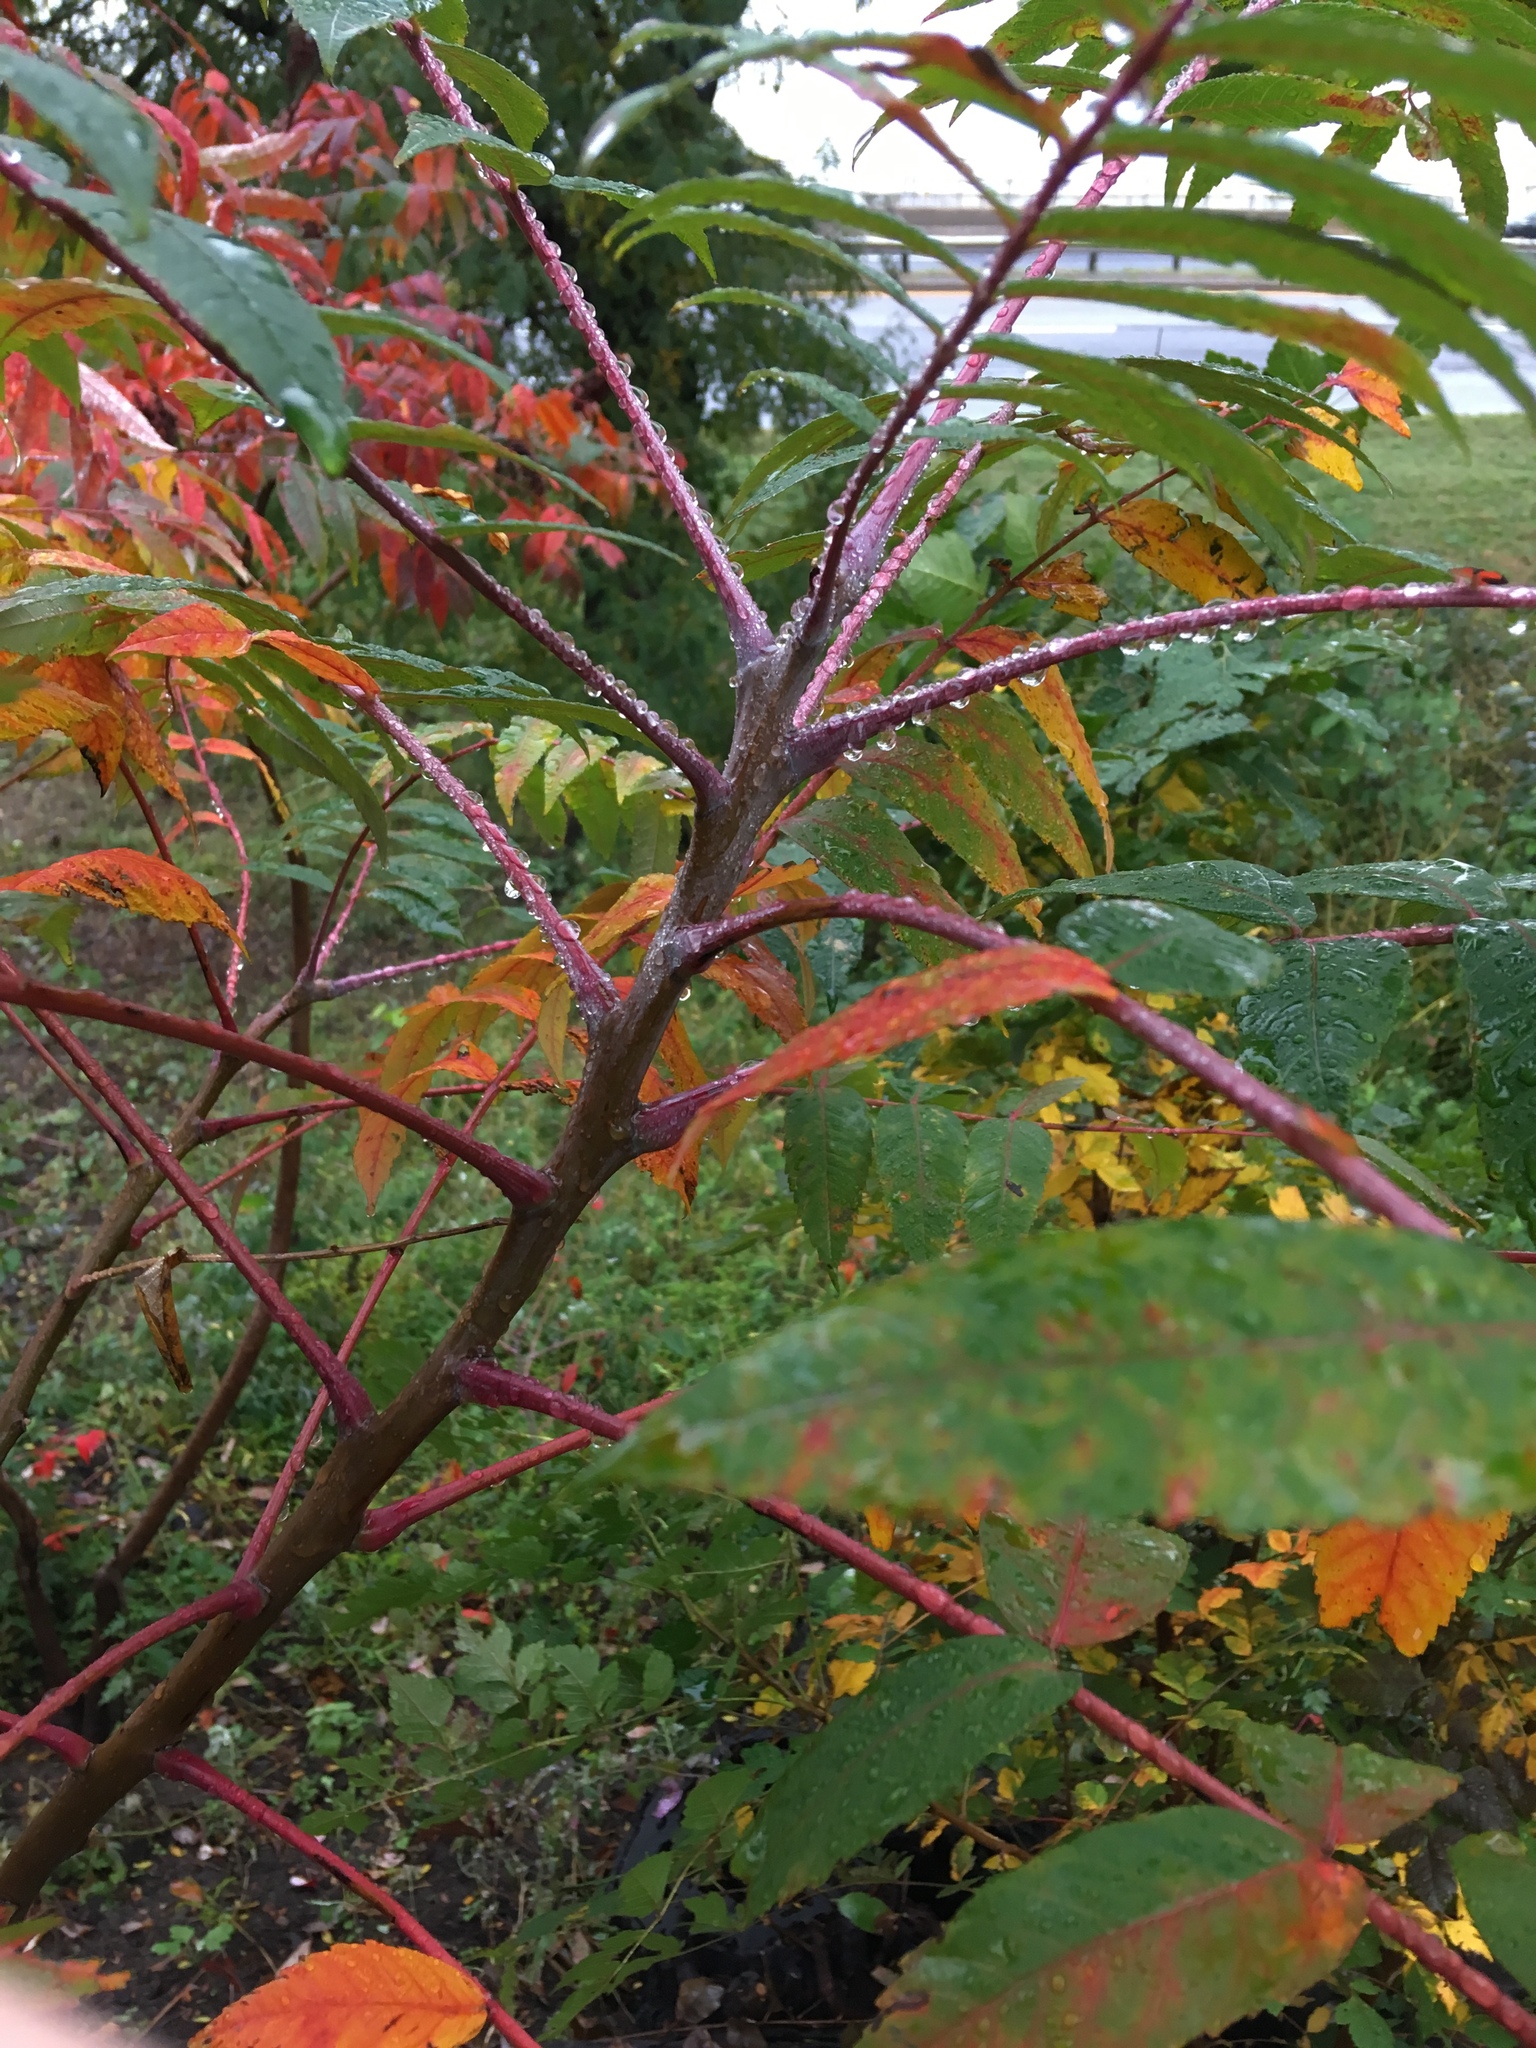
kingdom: Plantae
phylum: Tracheophyta
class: Magnoliopsida
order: Sapindales
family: Anacardiaceae
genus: Rhus
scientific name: Rhus glabra
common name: Scarlet sumac
